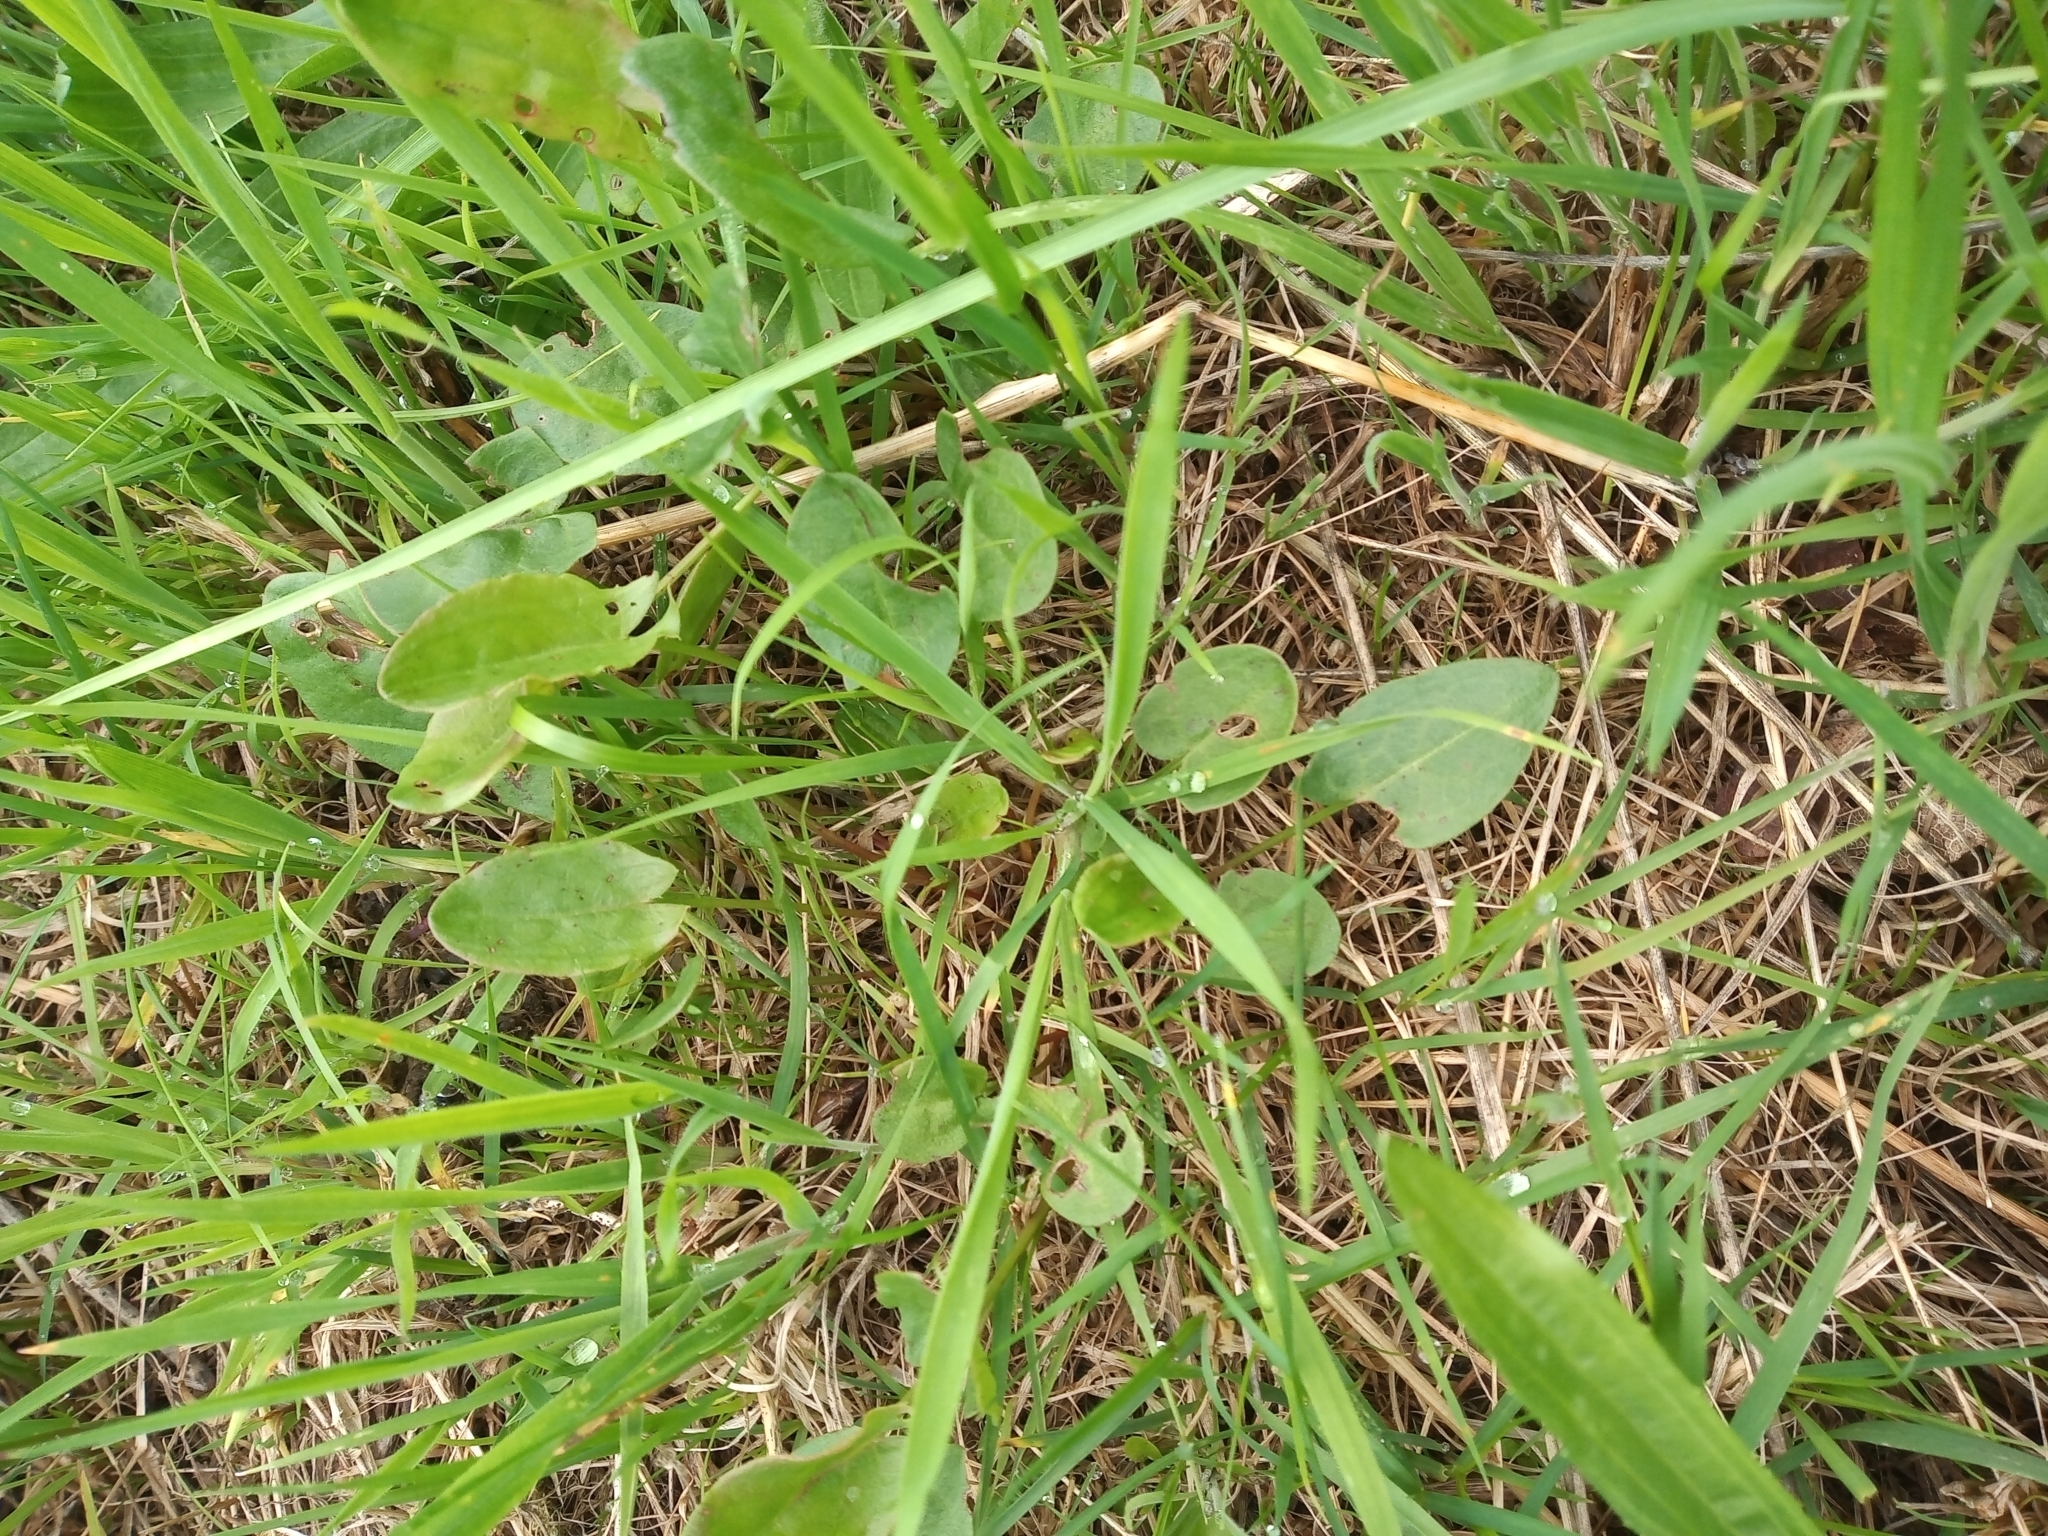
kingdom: Plantae
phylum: Tracheophyta
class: Magnoliopsida
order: Caryophyllales
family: Polygonaceae
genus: Rumex
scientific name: Rumex acetosa
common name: Garden sorrel
